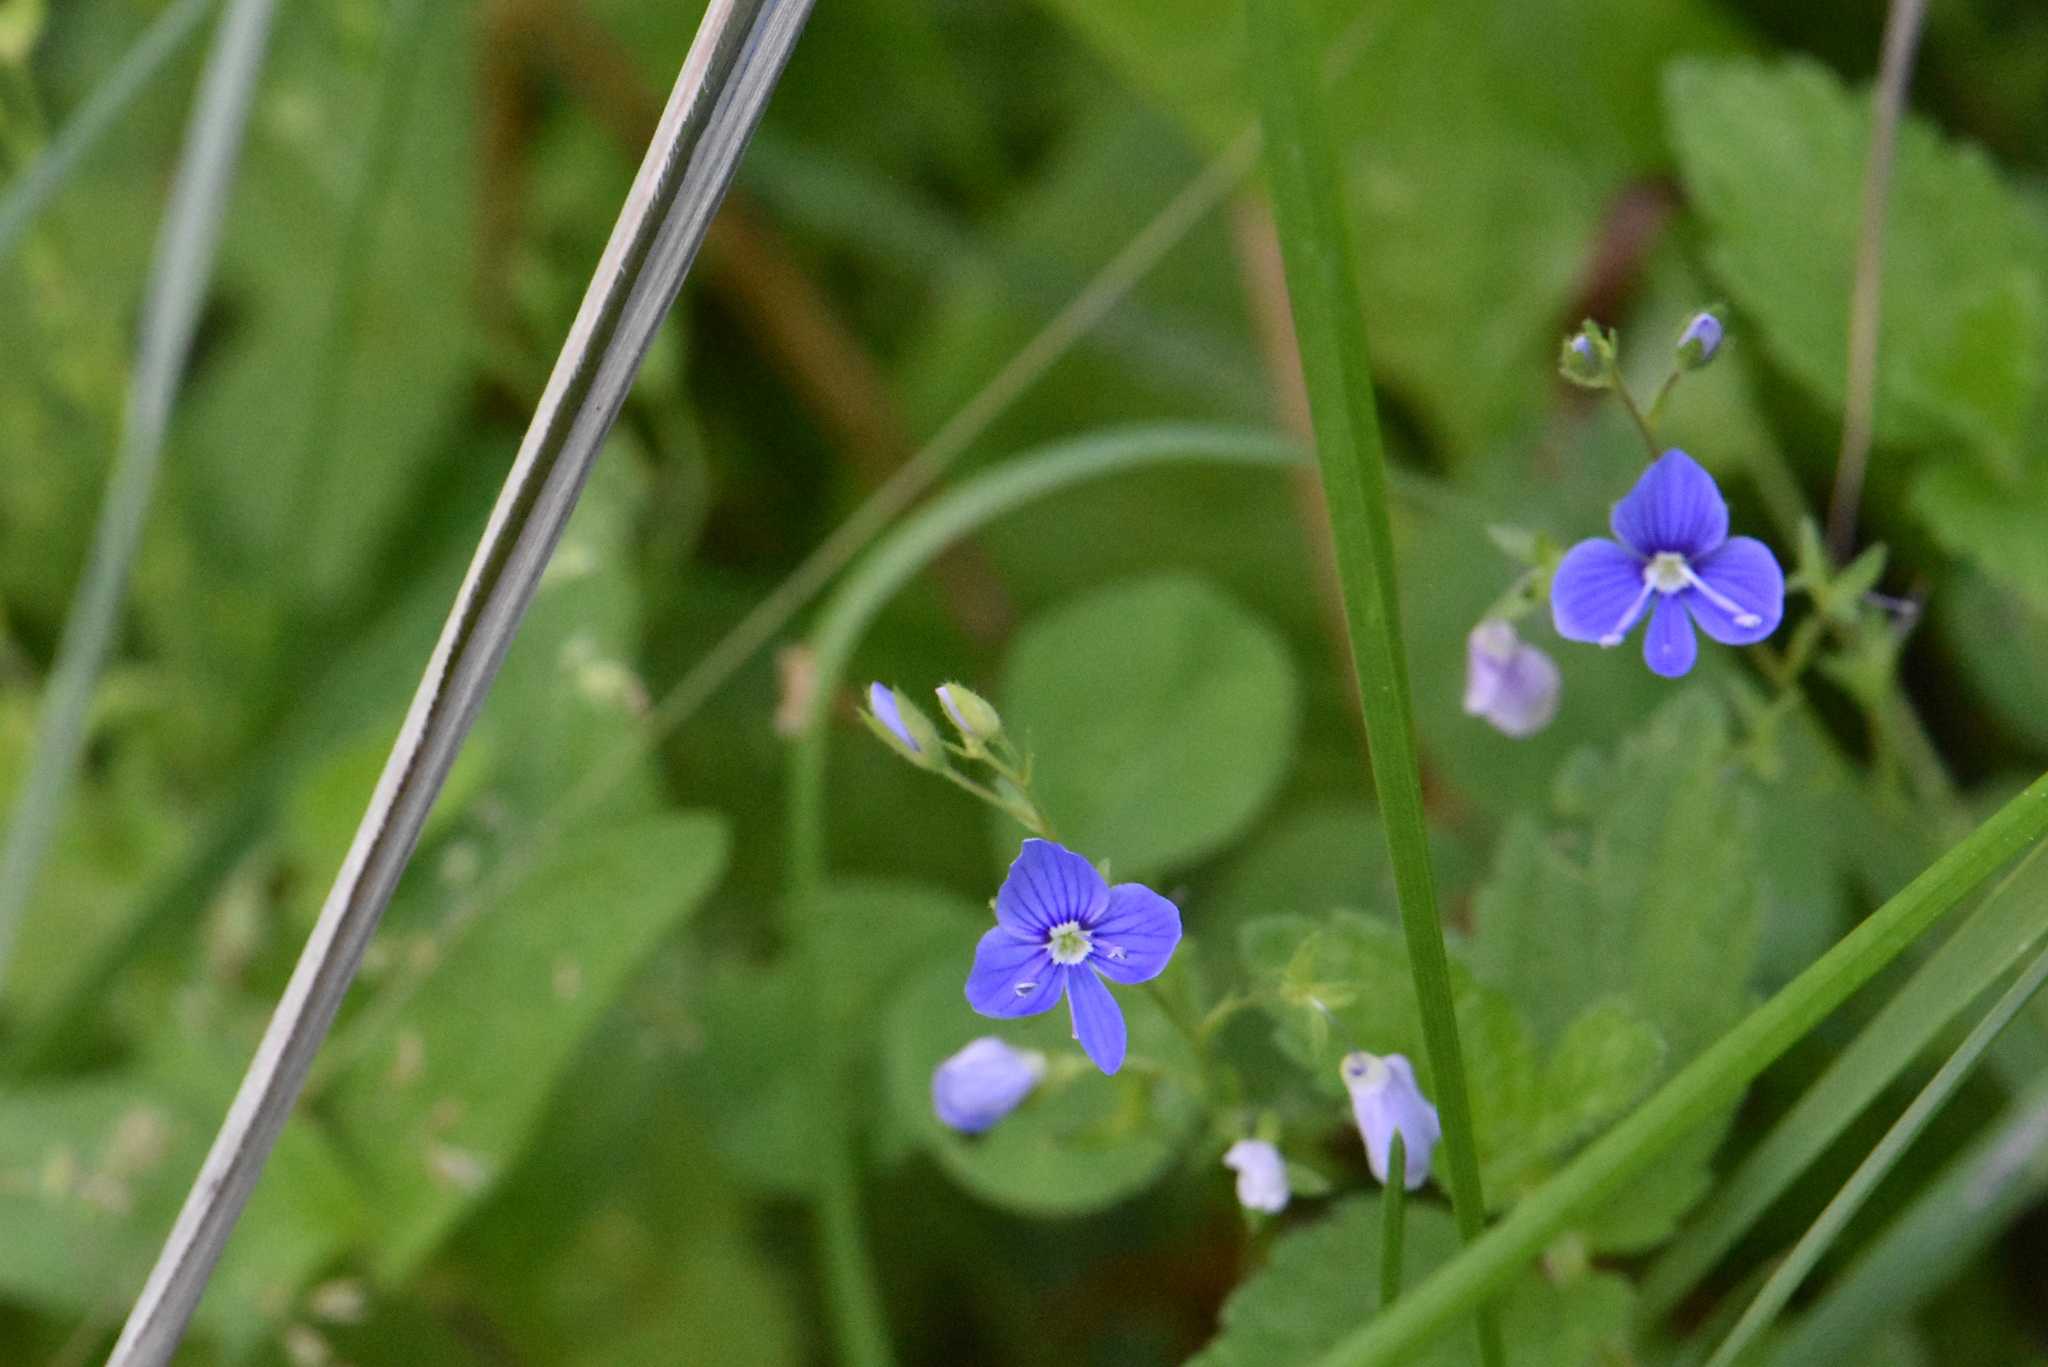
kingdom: Plantae
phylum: Tracheophyta
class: Magnoliopsida
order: Lamiales
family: Plantaginaceae
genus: Veronica
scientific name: Veronica chamaedrys
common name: Germander speedwell
